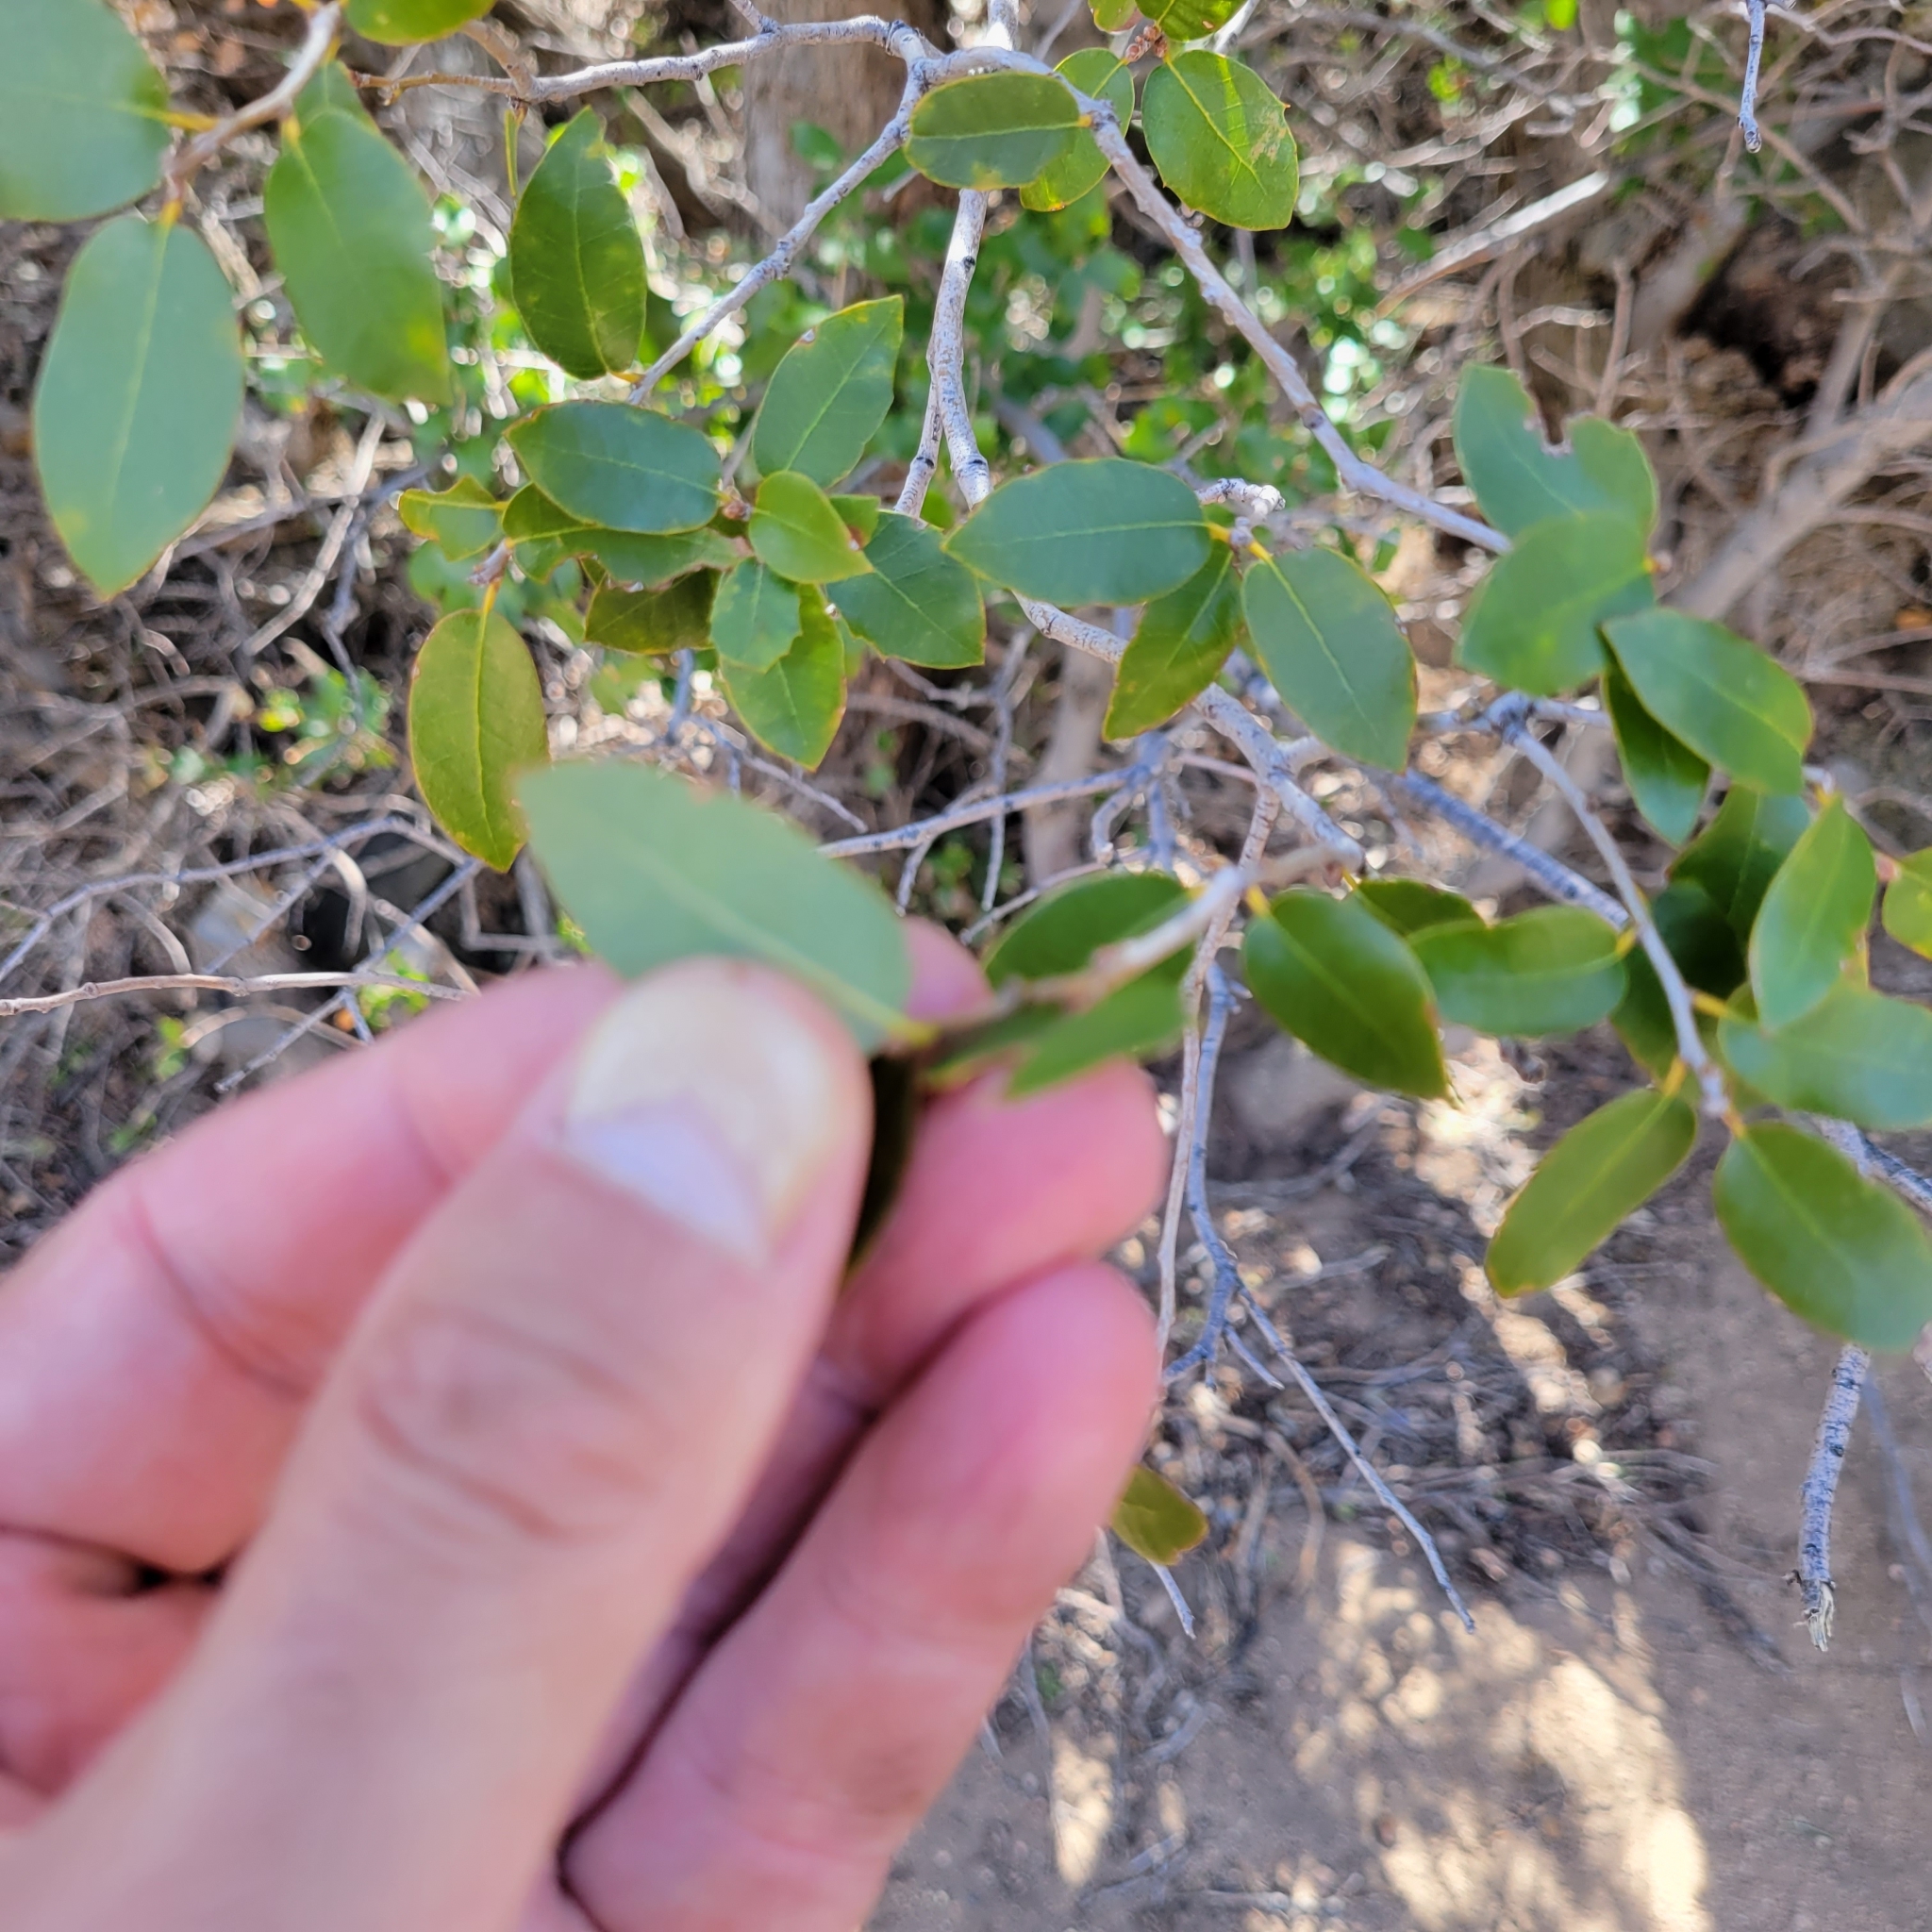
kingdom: Plantae
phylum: Tracheophyta
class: Magnoliopsida
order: Fagales
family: Fagaceae
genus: Quercus
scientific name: Quercus chrysolepis
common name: Canyon live oak
